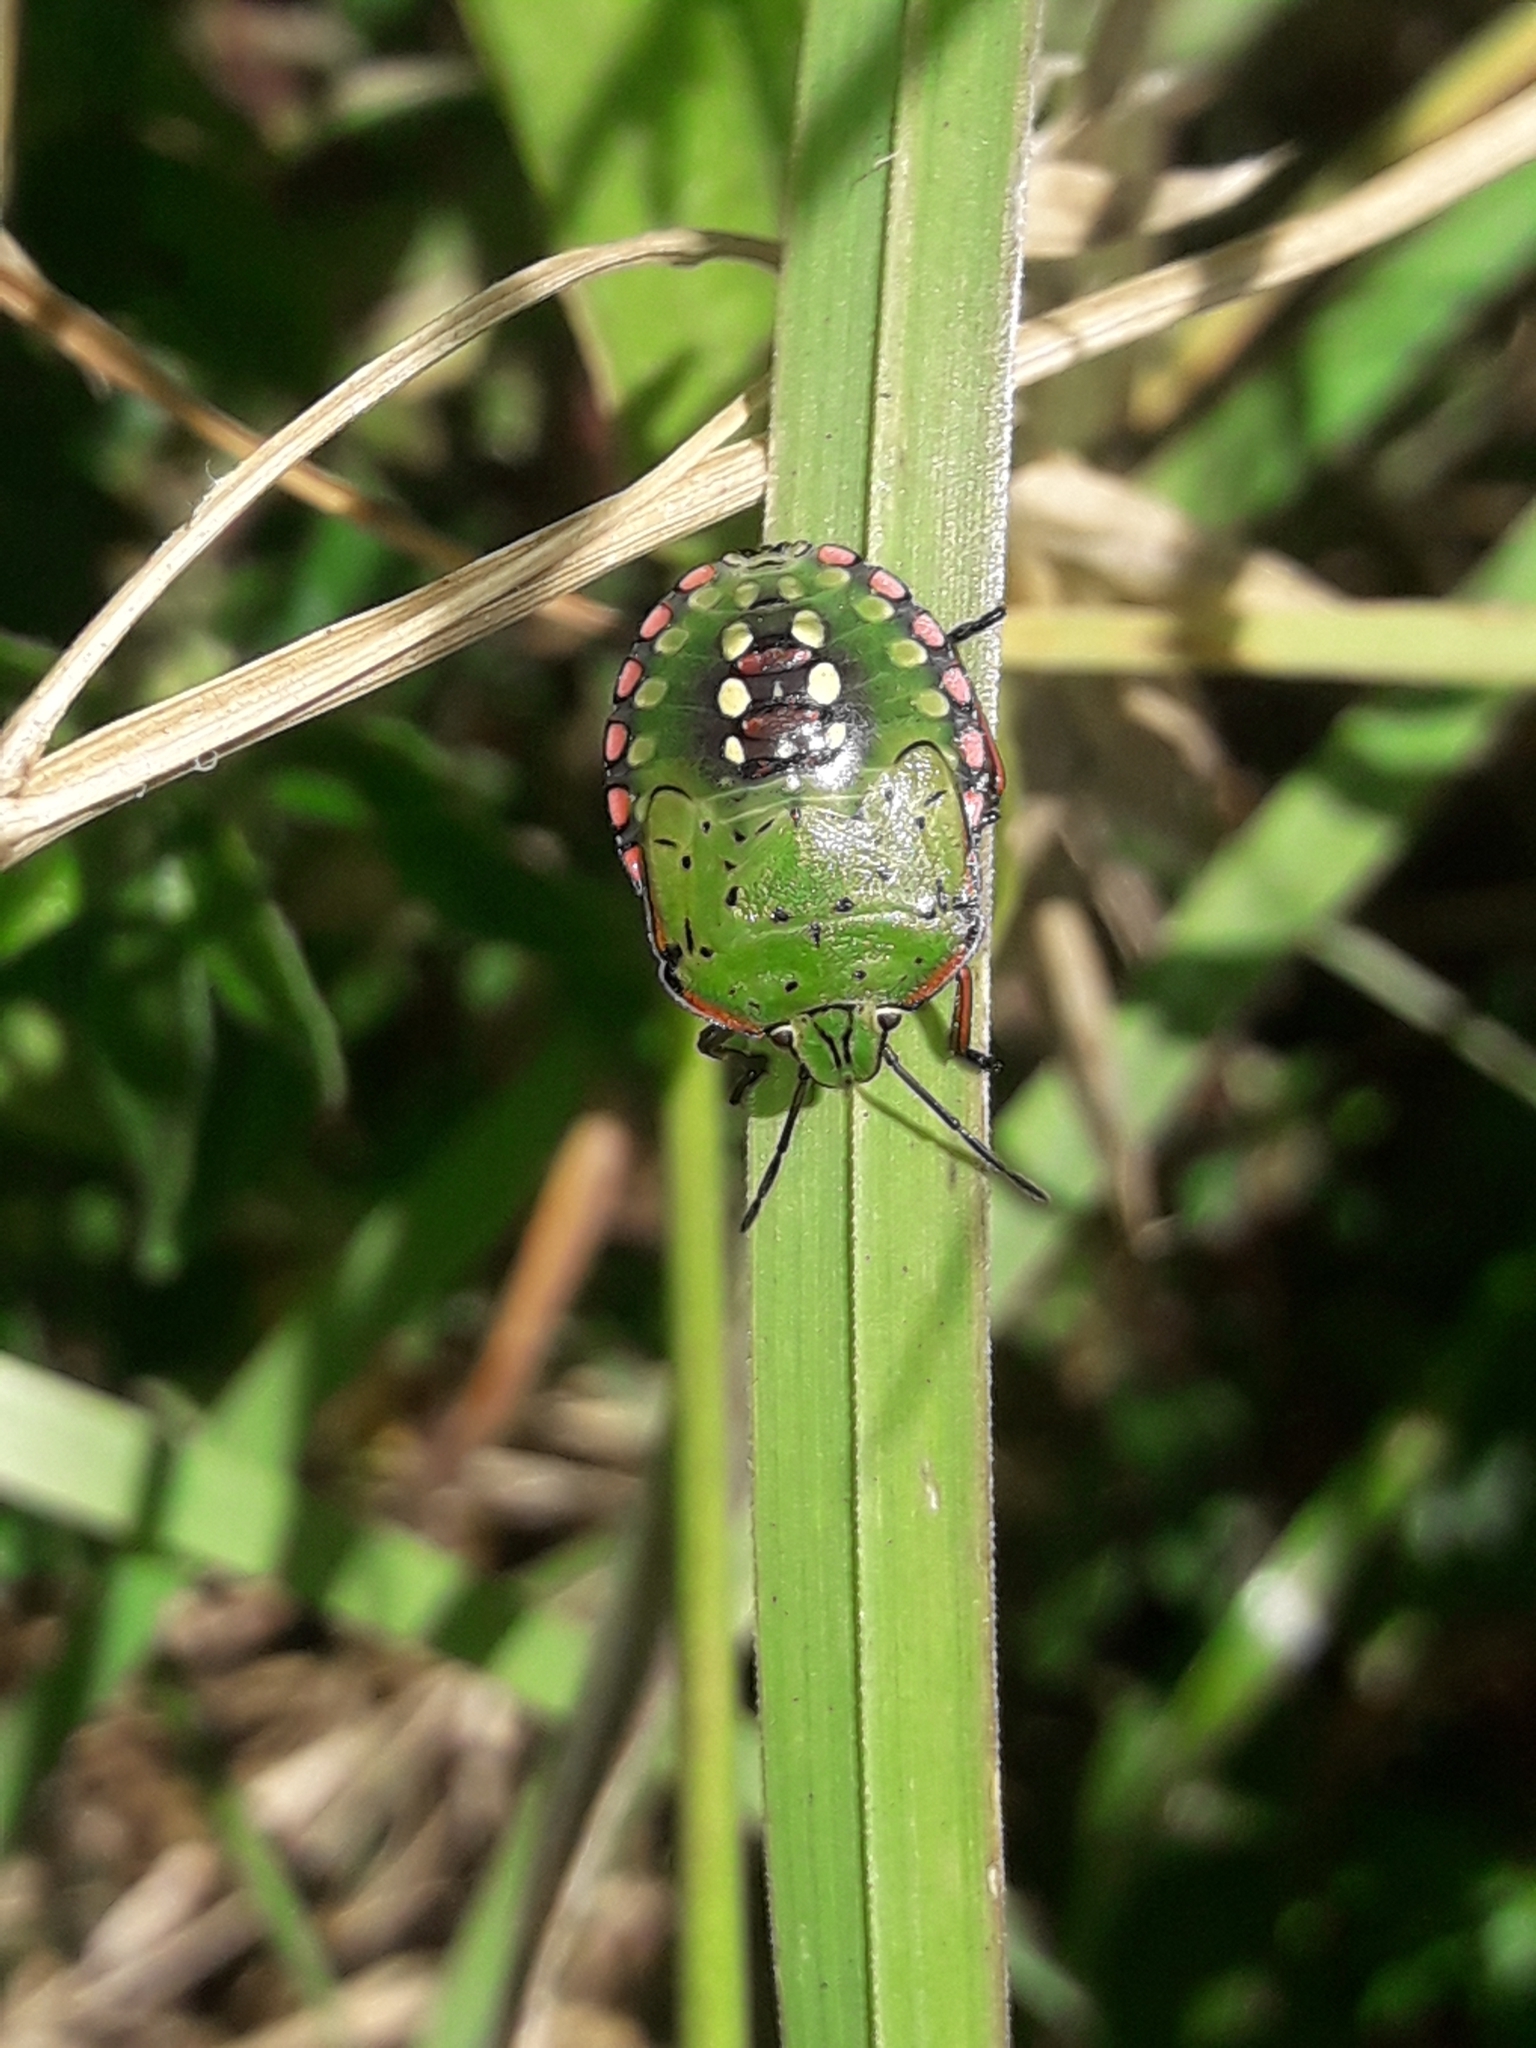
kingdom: Animalia
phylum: Arthropoda
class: Insecta
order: Hemiptera
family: Pentatomidae
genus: Nezara
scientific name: Nezara viridula
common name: Southern green stink bug
